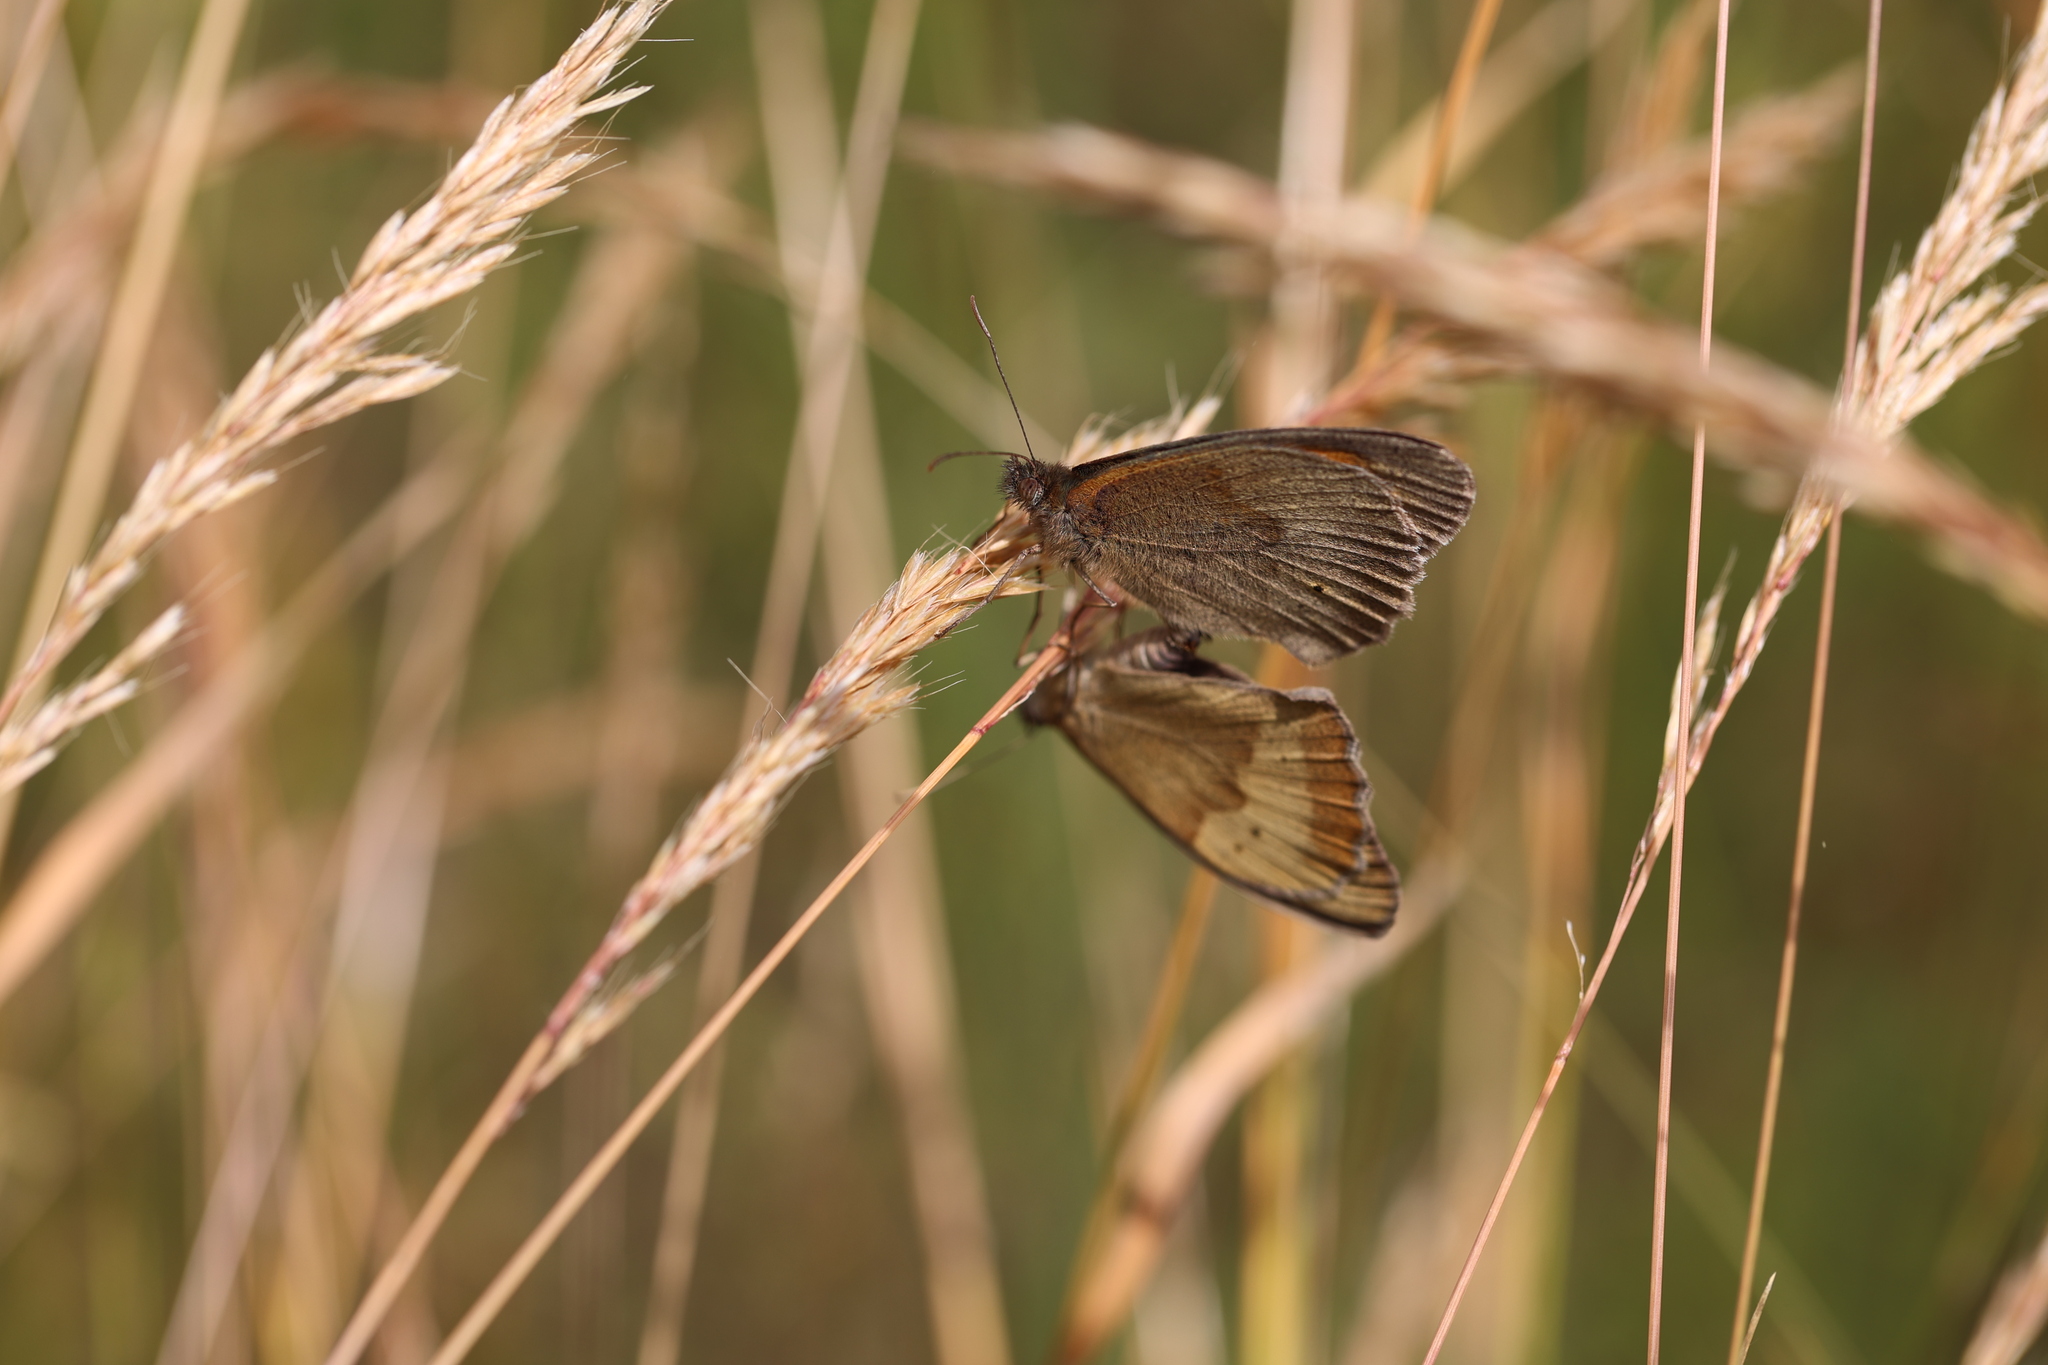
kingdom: Animalia
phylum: Arthropoda
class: Insecta
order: Lepidoptera
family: Nymphalidae
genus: Maniola
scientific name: Maniola jurtina
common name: Meadow brown
